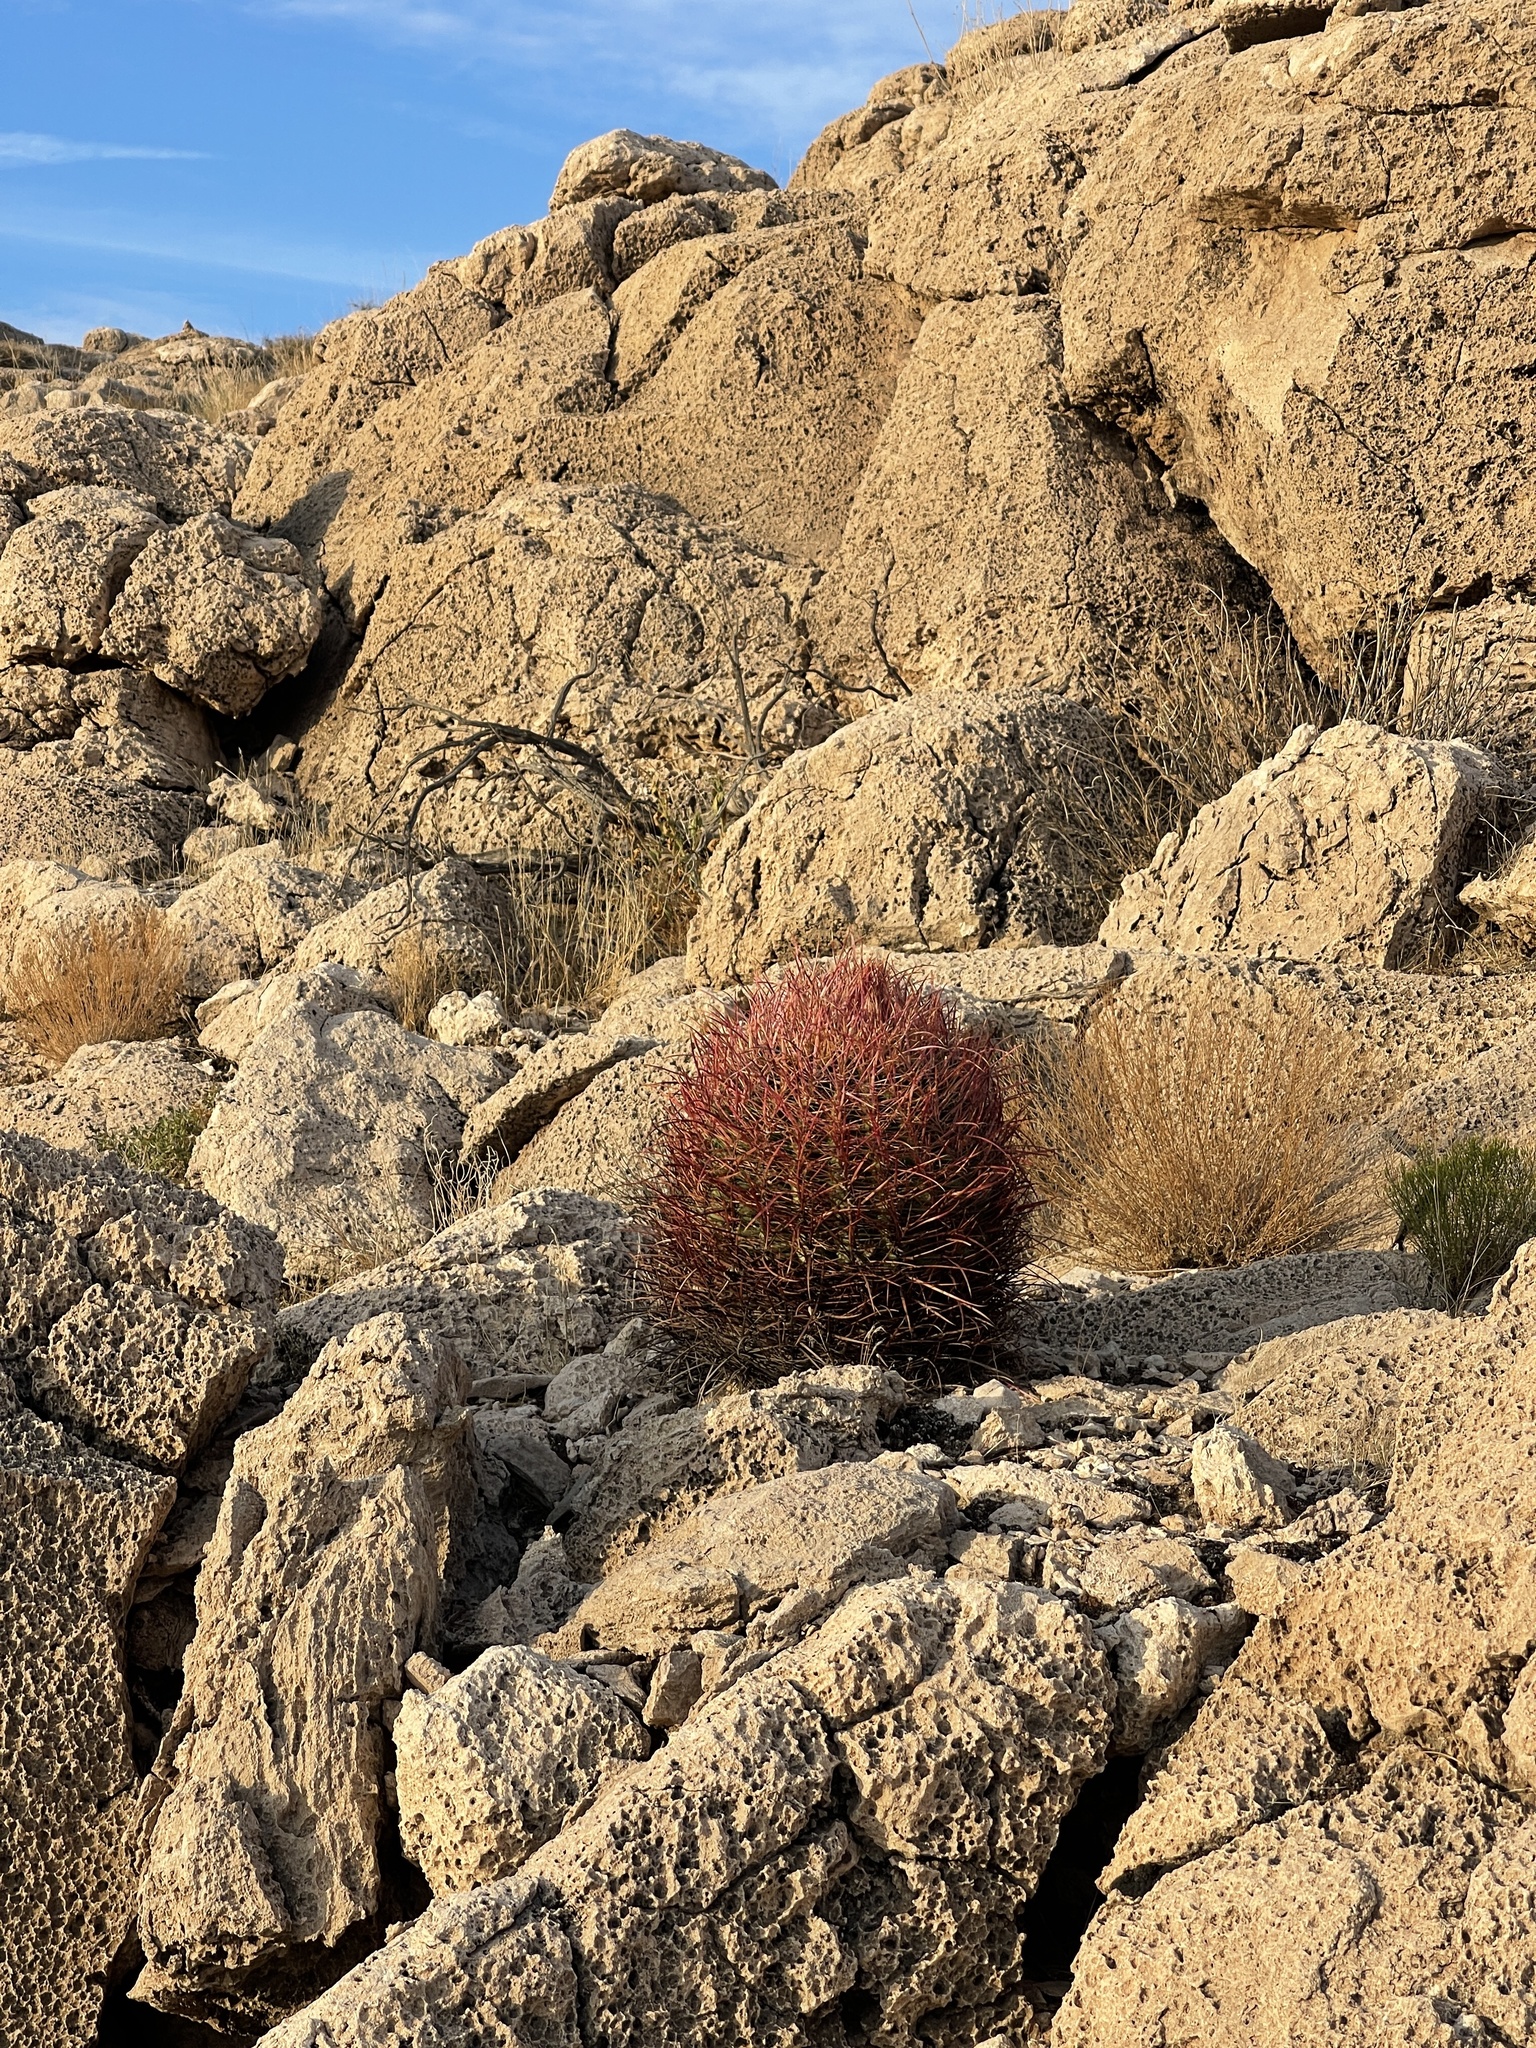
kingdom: Plantae
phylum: Tracheophyta
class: Magnoliopsida
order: Caryophyllales
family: Cactaceae
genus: Ferocactus
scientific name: Ferocactus cylindraceus
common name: California barrel cactus
